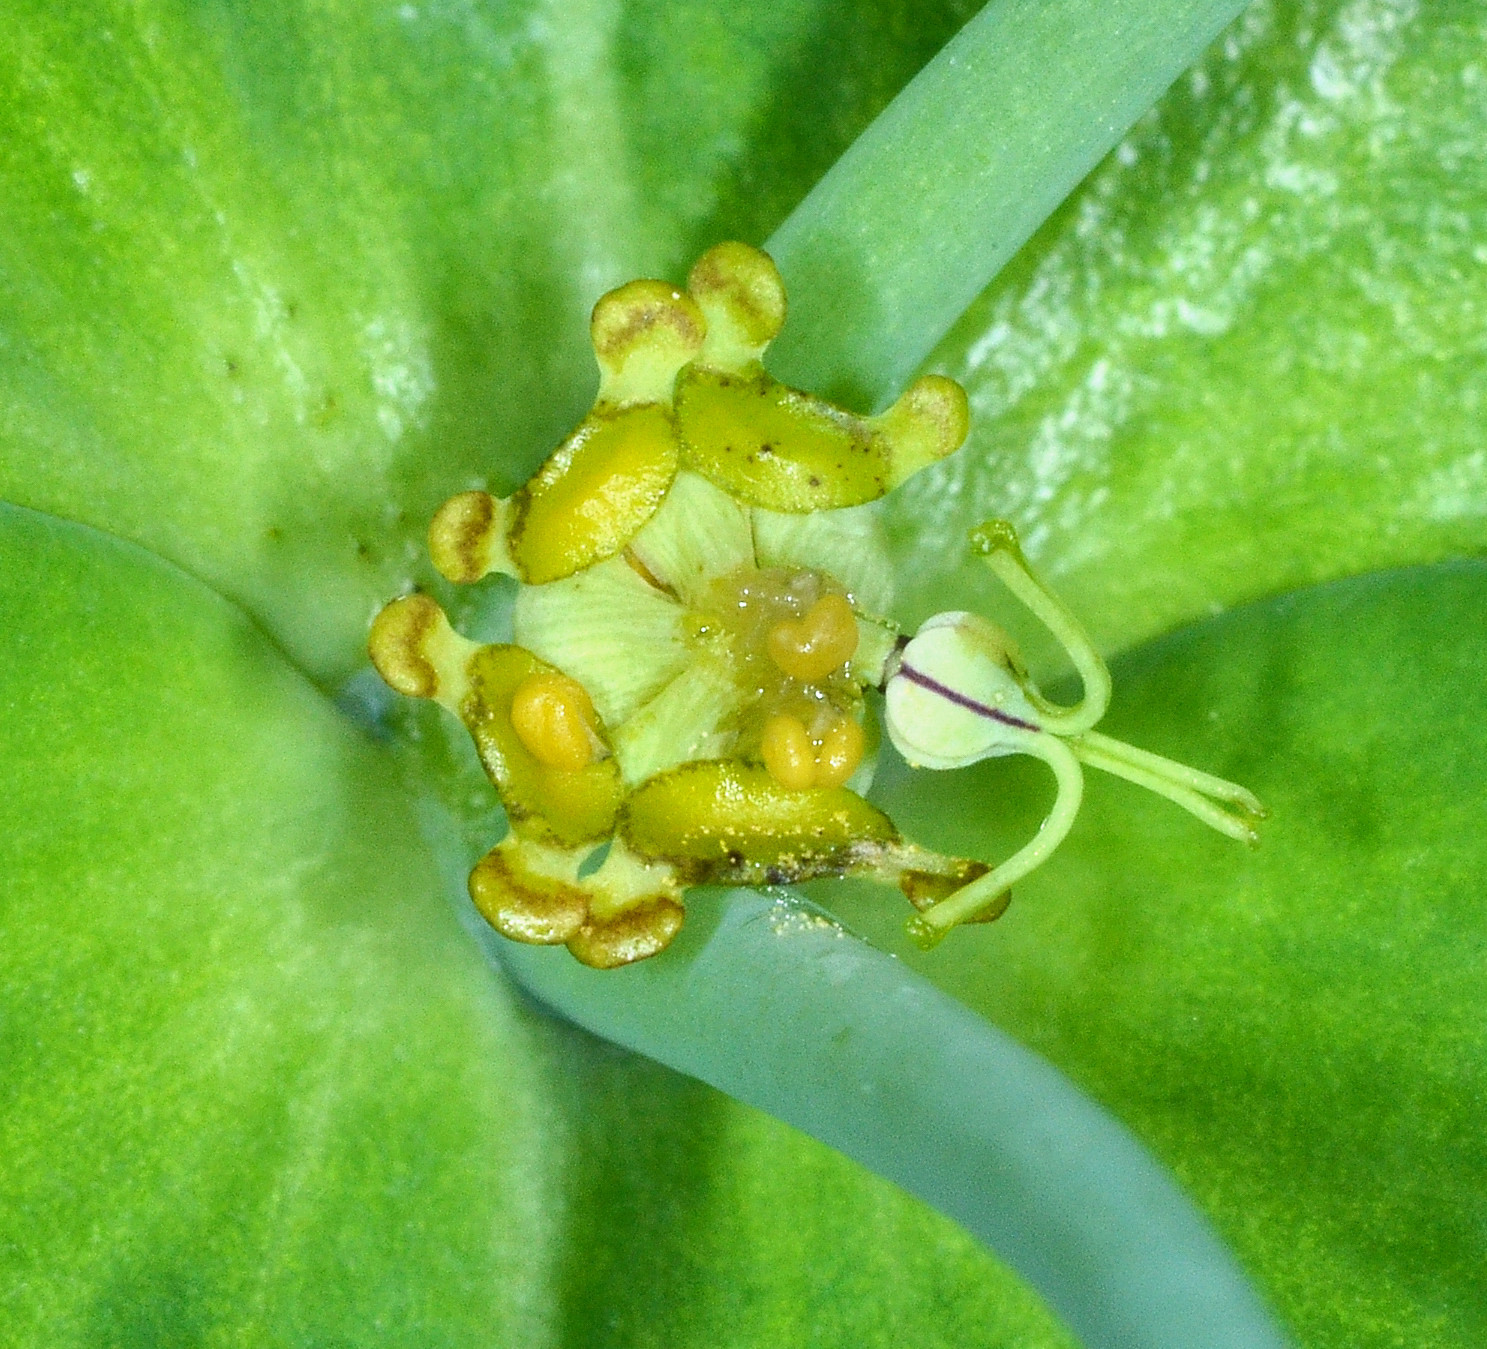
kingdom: Plantae
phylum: Tracheophyta
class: Magnoliopsida
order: Malpighiales
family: Euphorbiaceae
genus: Euphorbia
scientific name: Euphorbia lathyris
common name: Caper spurge
